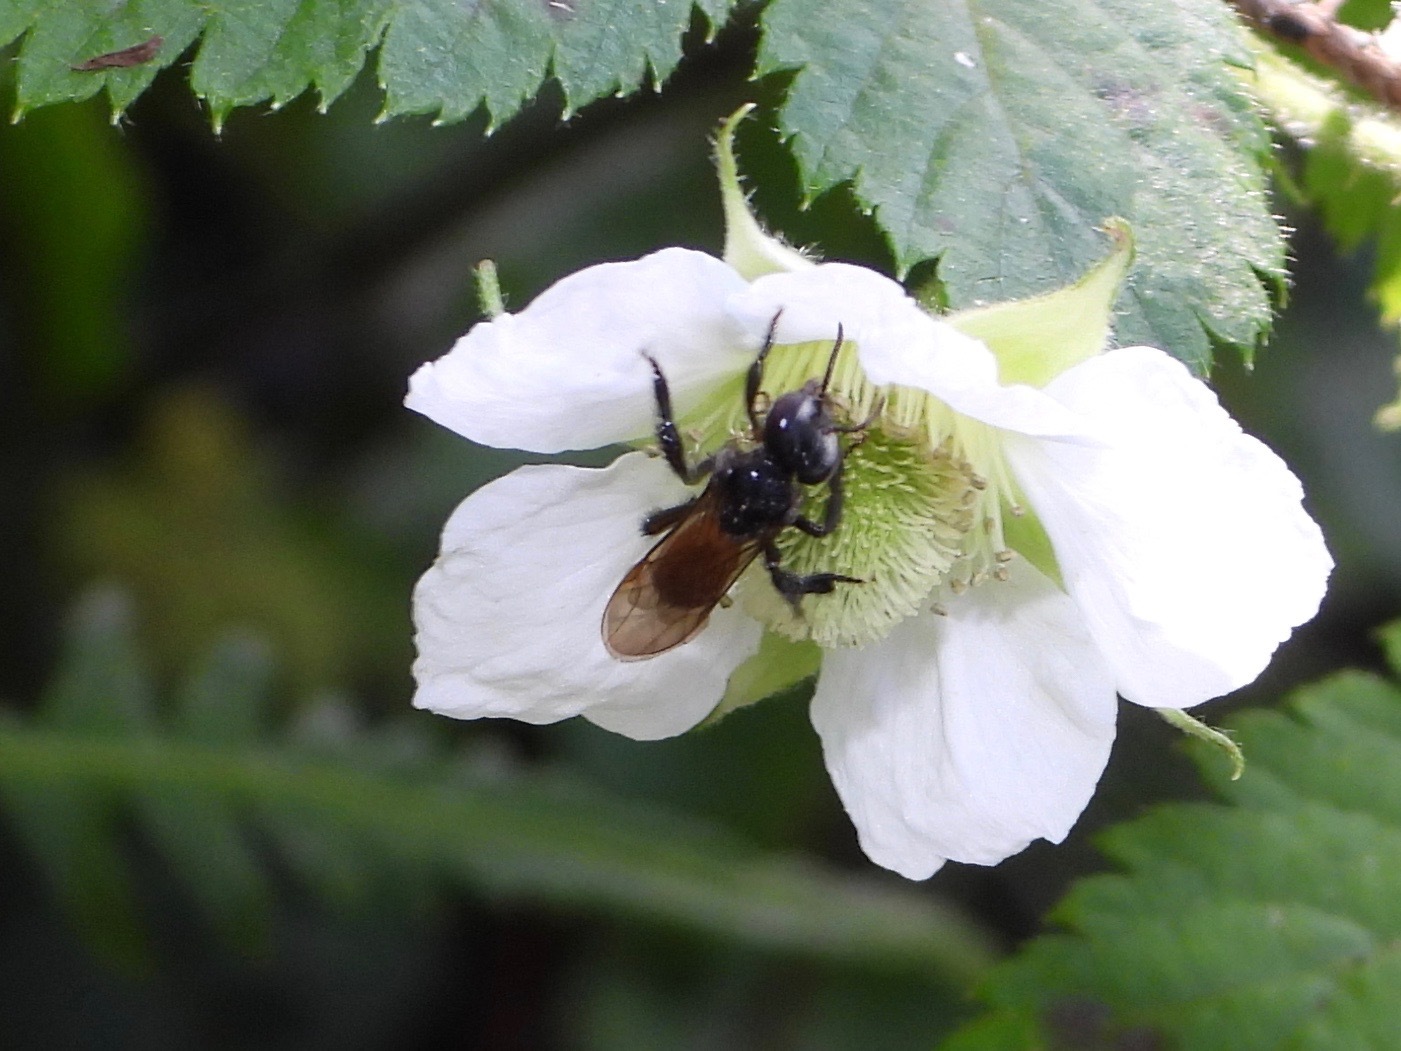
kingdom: Animalia
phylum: Arthropoda
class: Insecta
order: Hymenoptera
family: Apidae
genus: Trigona
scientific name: Trigona fulviventris
